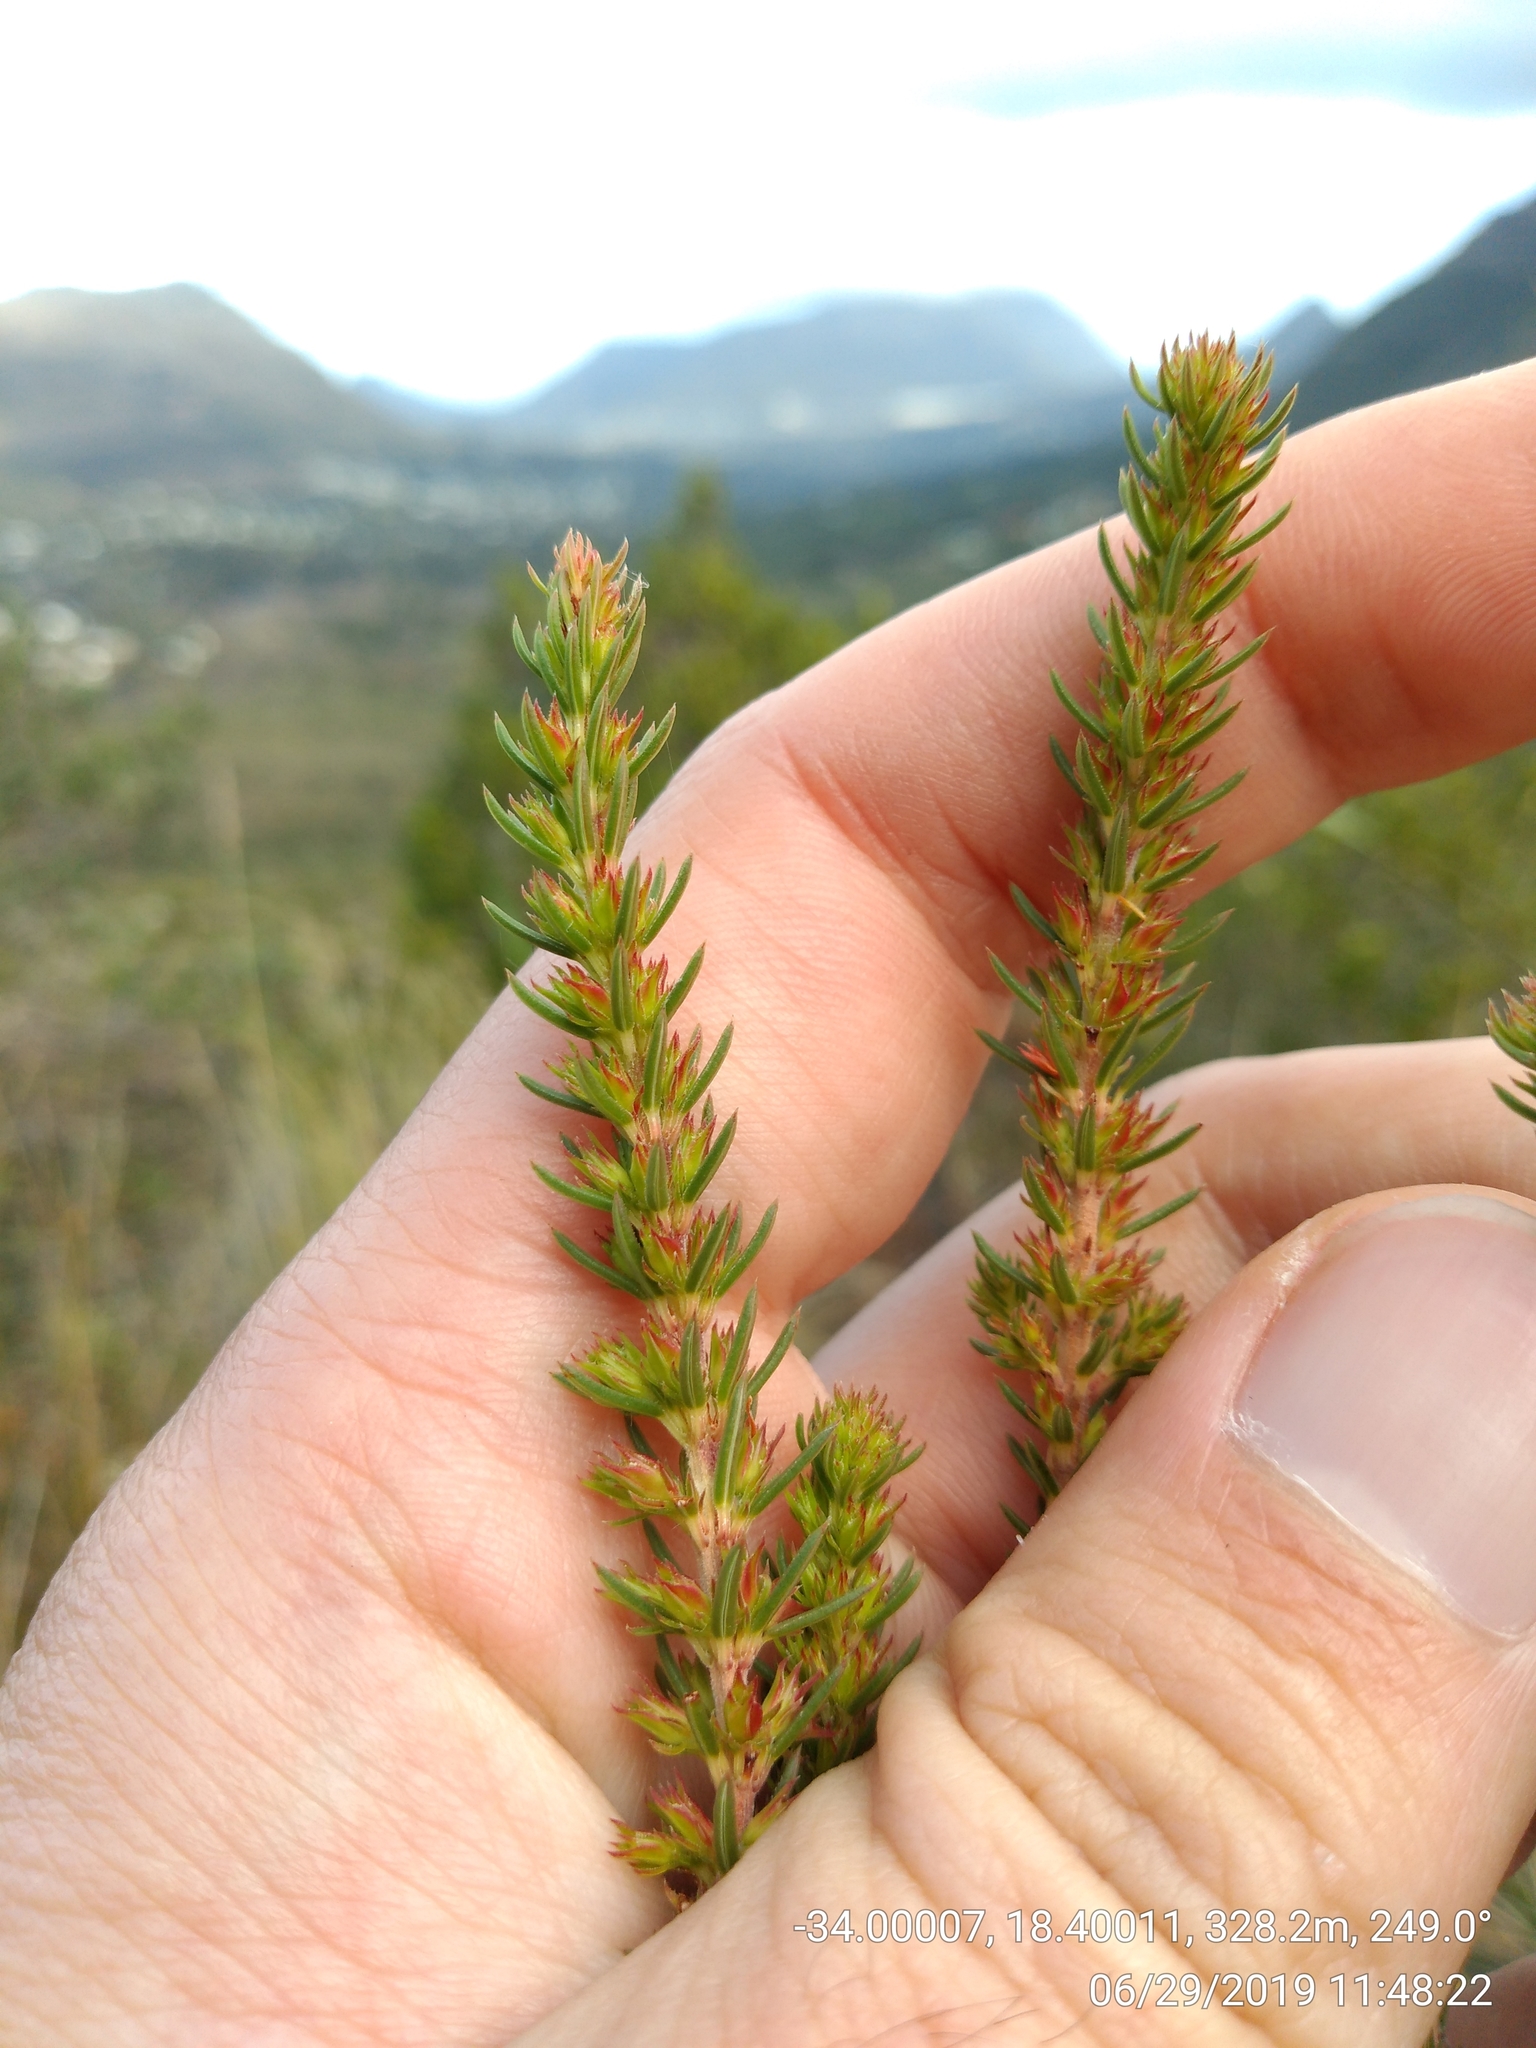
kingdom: Plantae
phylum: Tracheophyta
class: Magnoliopsida
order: Ericales
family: Ericaceae
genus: Erica
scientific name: Erica abietina
